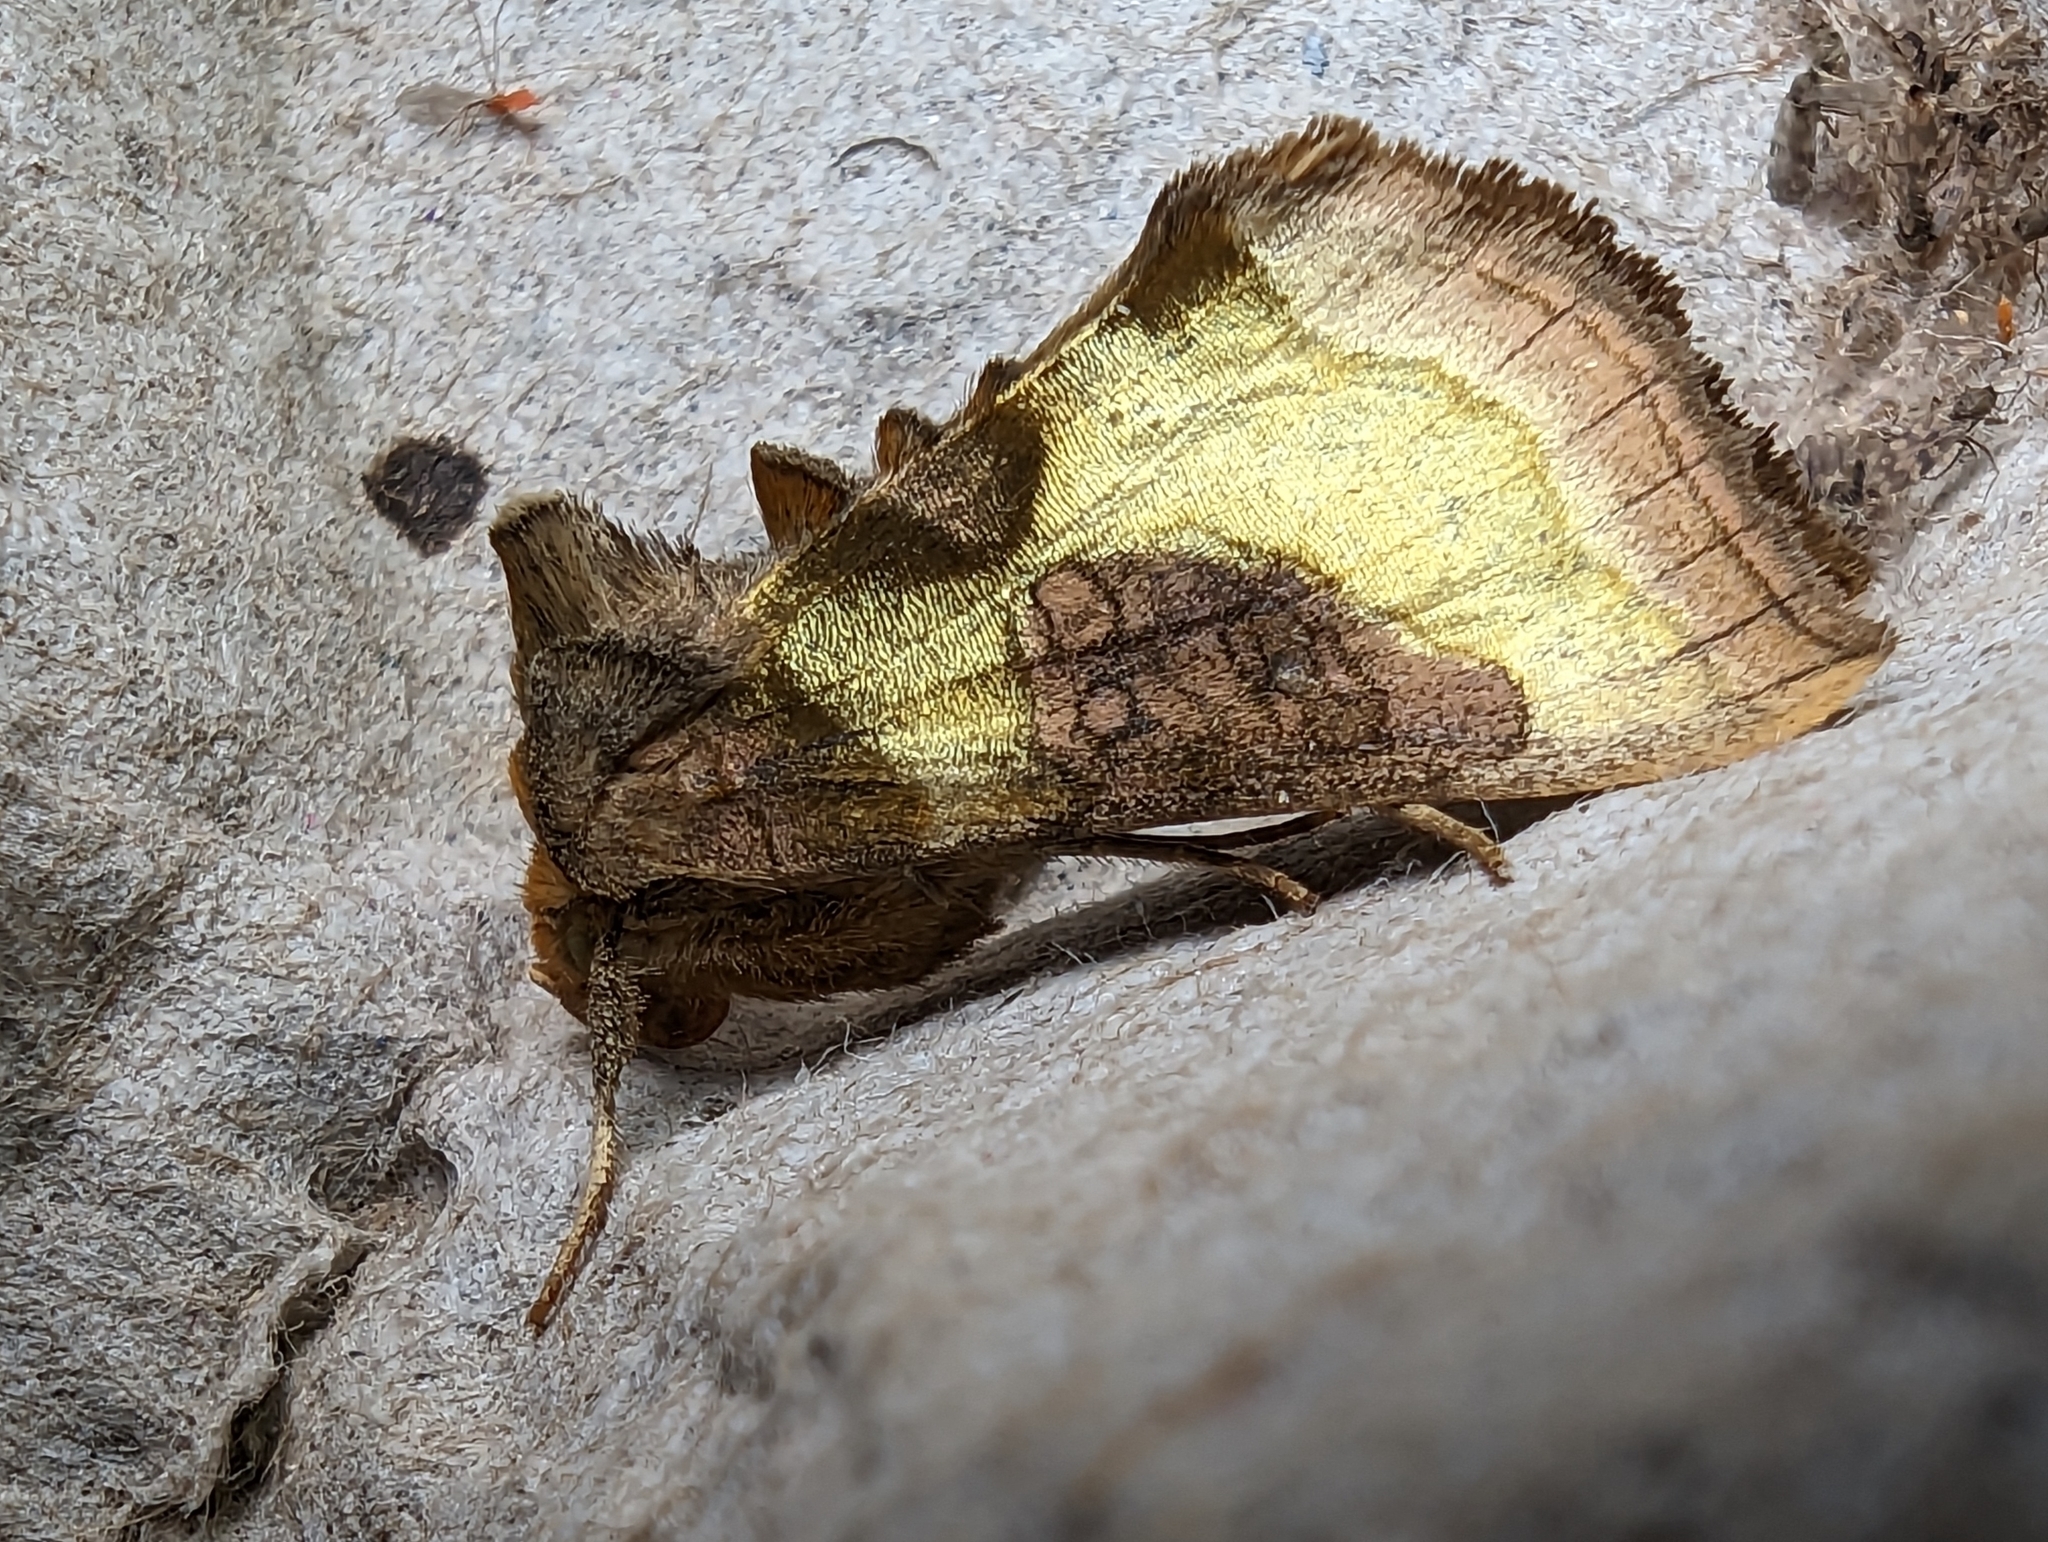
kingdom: Animalia
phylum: Arthropoda
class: Insecta
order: Lepidoptera
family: Noctuidae
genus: Diachrysia
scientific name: Diachrysia chrysitis
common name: Burnished brass
